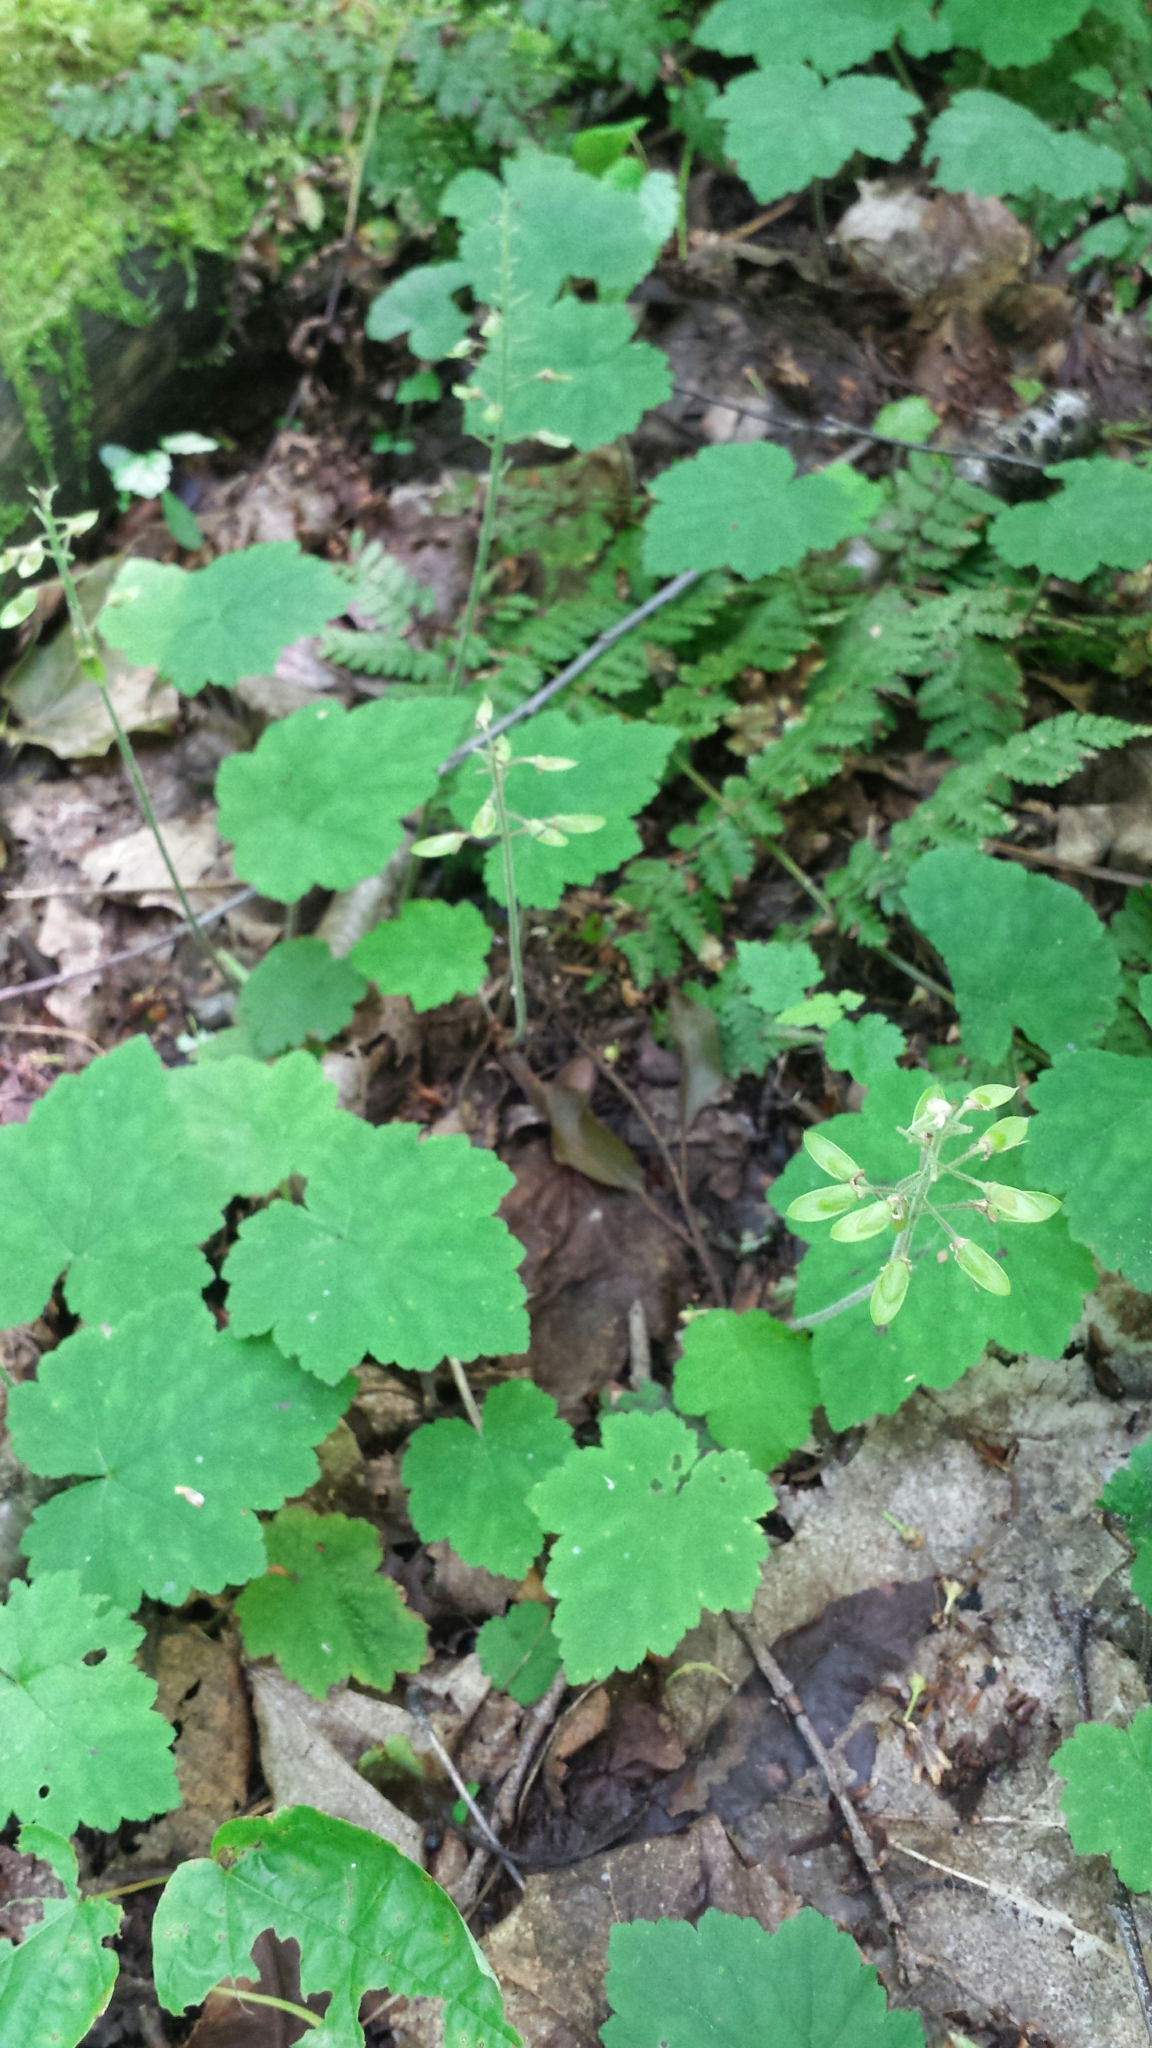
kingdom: Plantae
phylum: Tracheophyta
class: Magnoliopsida
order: Saxifragales
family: Saxifragaceae
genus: Tiarella
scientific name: Tiarella stolonifera
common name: Stoloniferous foamflower
